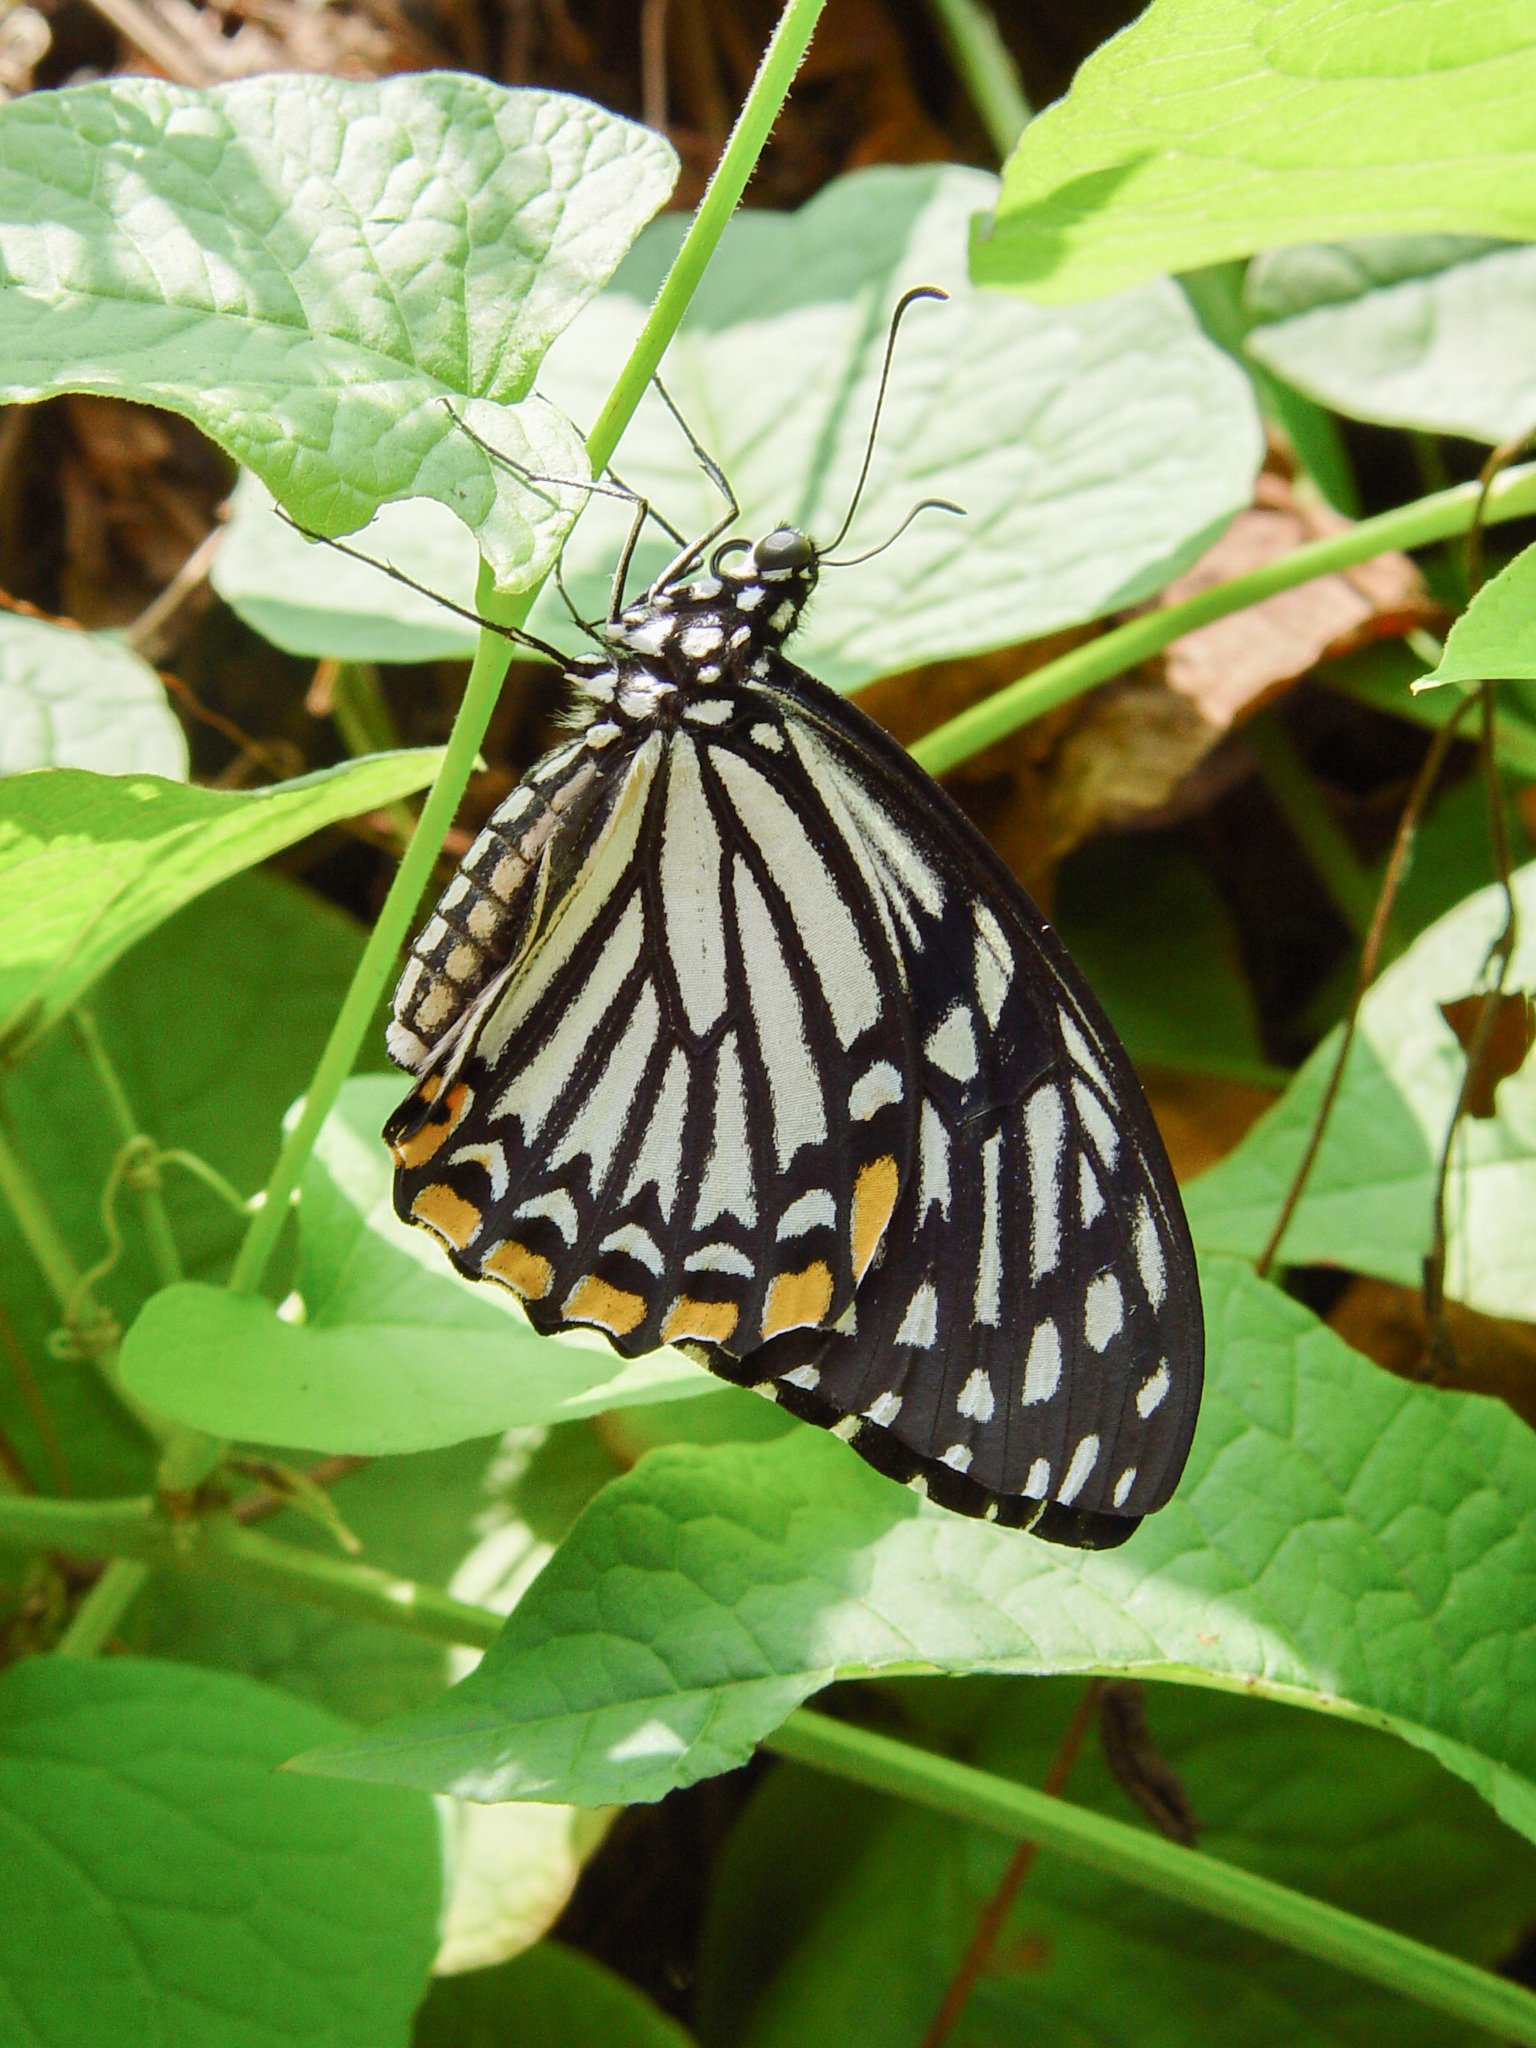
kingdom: Animalia
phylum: Arthropoda
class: Insecta
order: Lepidoptera
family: Papilionidae
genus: Chilasa
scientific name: Chilasa clytia
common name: Common mime
